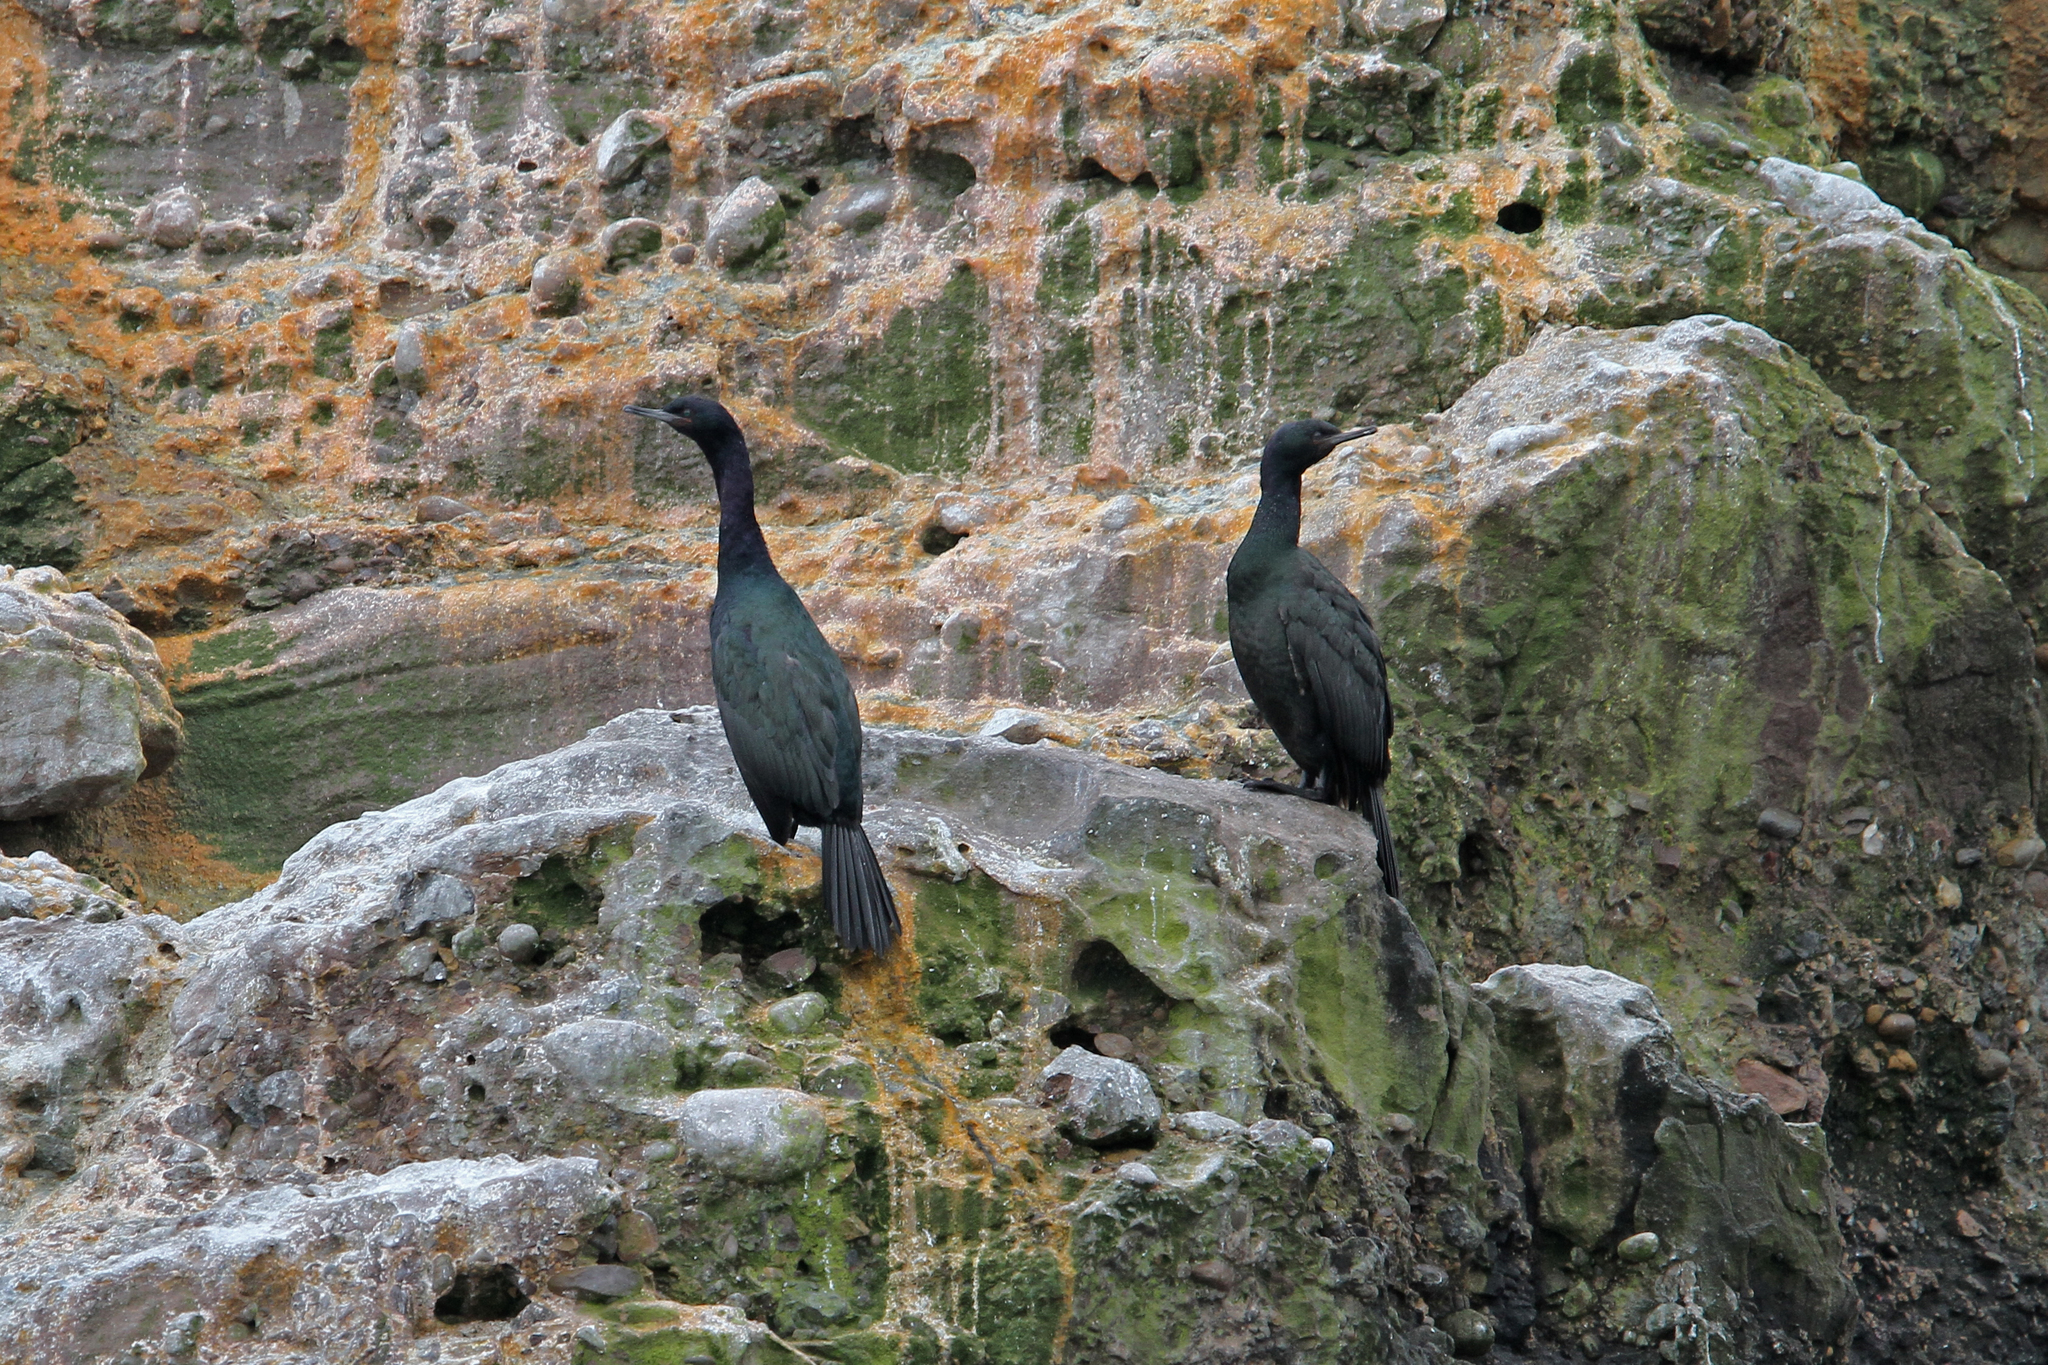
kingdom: Animalia
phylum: Chordata
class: Aves
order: Suliformes
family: Phalacrocoracidae
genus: Phalacrocorax
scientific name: Phalacrocorax pelagicus
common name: Pelagic cormorant
